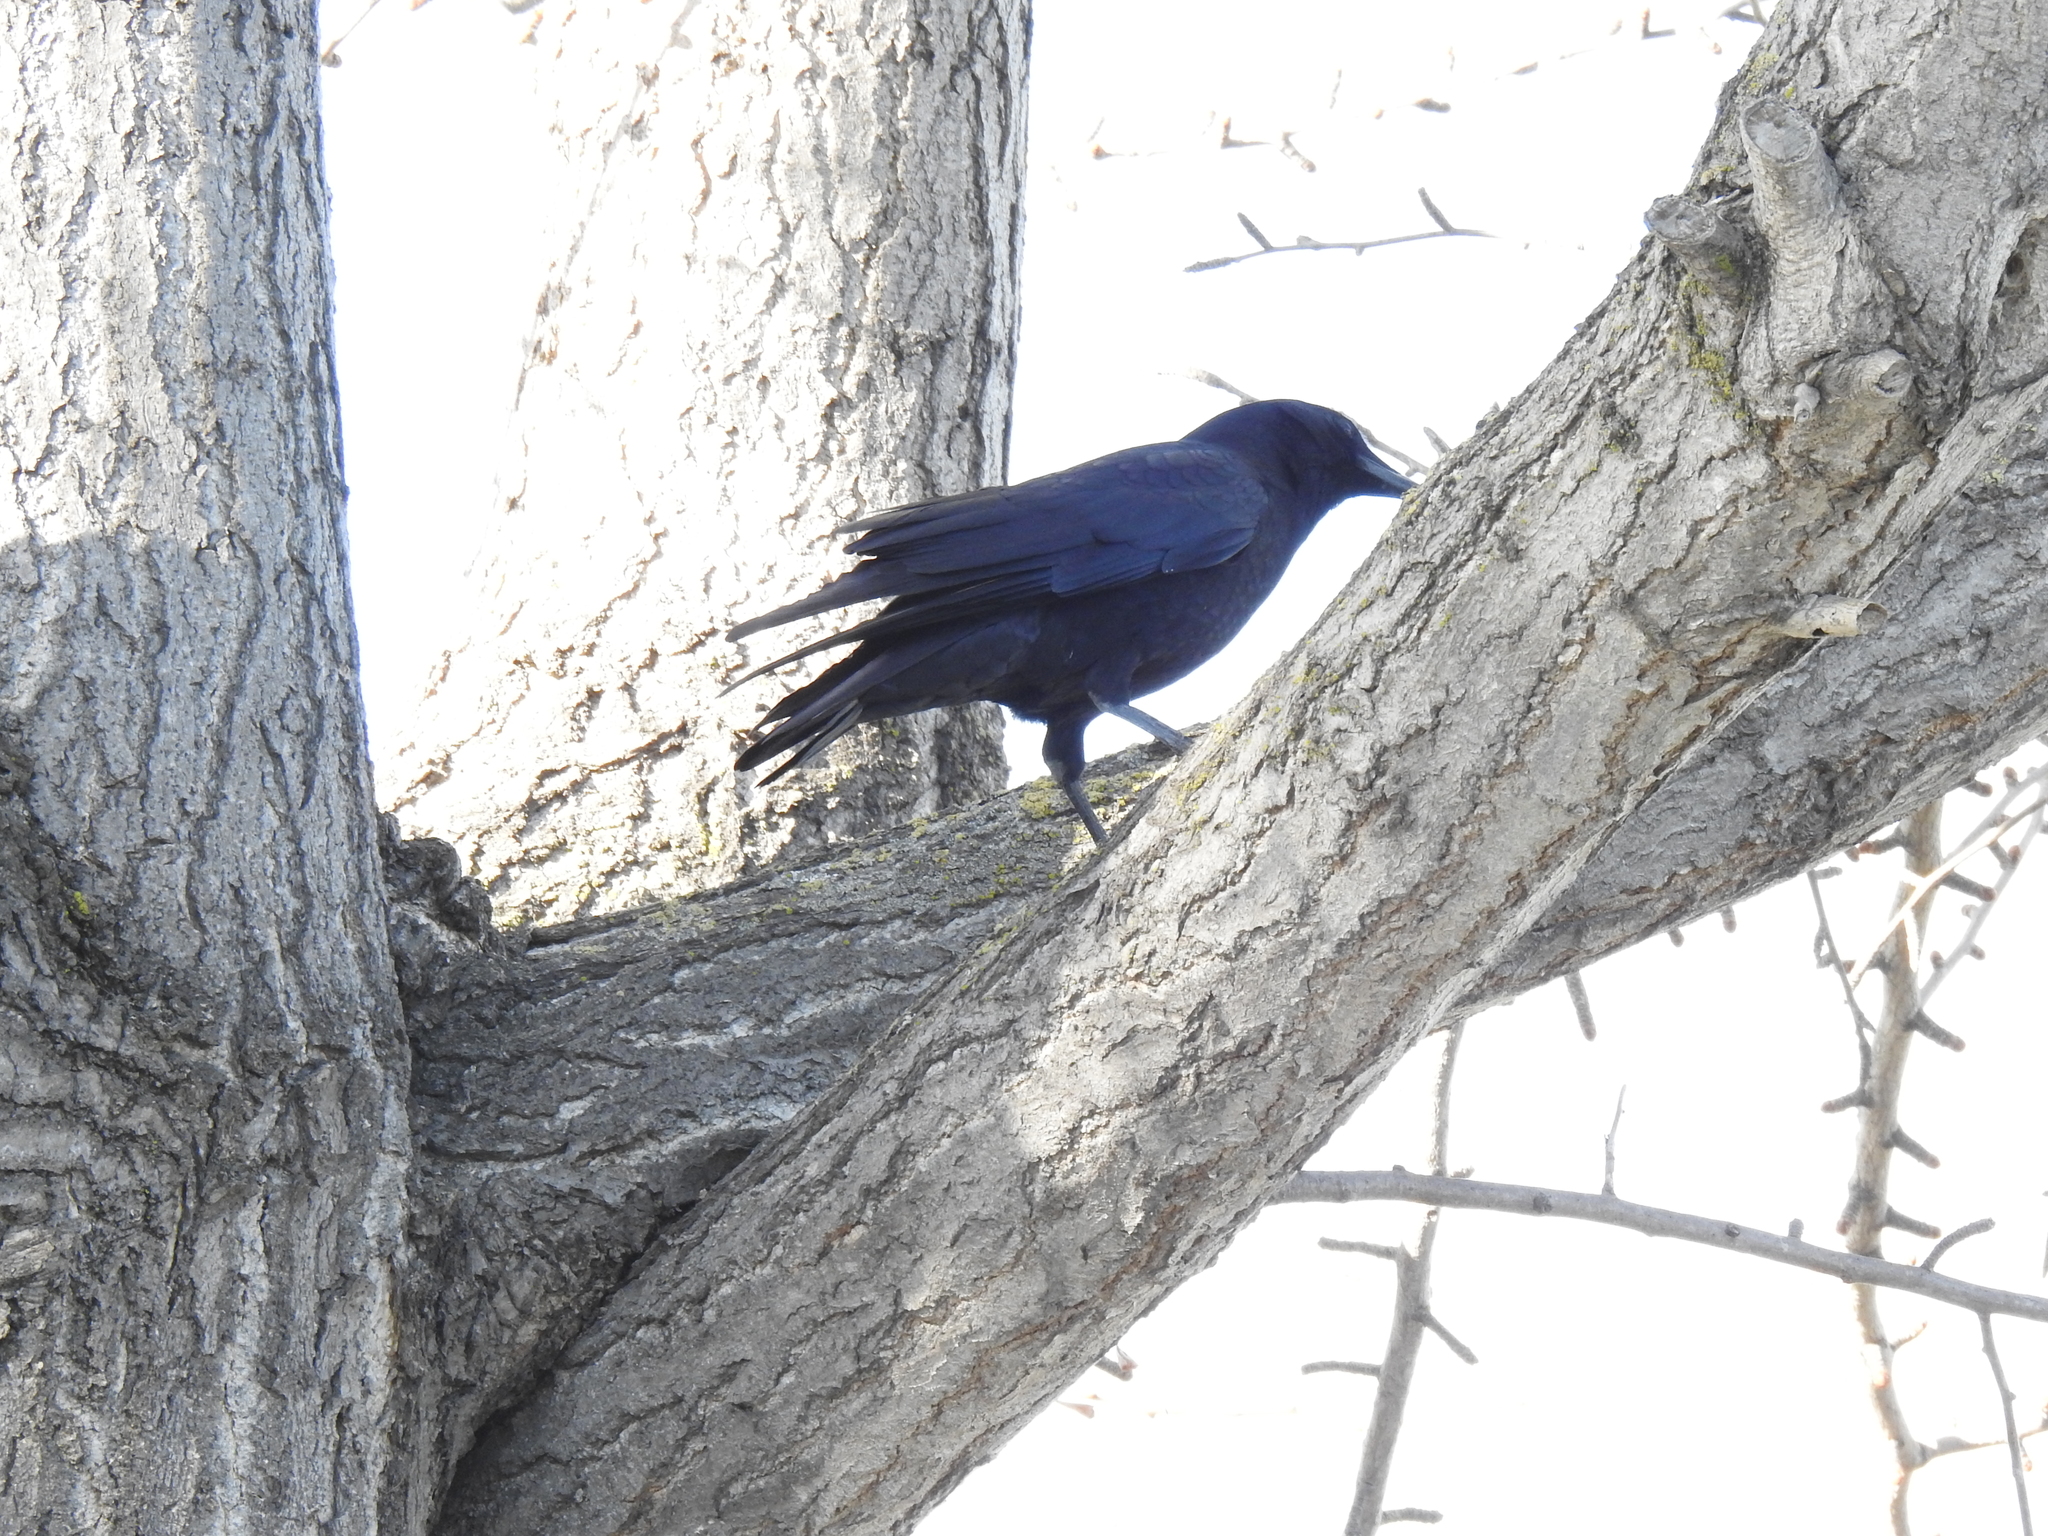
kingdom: Animalia
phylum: Chordata
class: Aves
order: Passeriformes
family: Corvidae
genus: Corvus
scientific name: Corvus brachyrhynchos
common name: American crow
